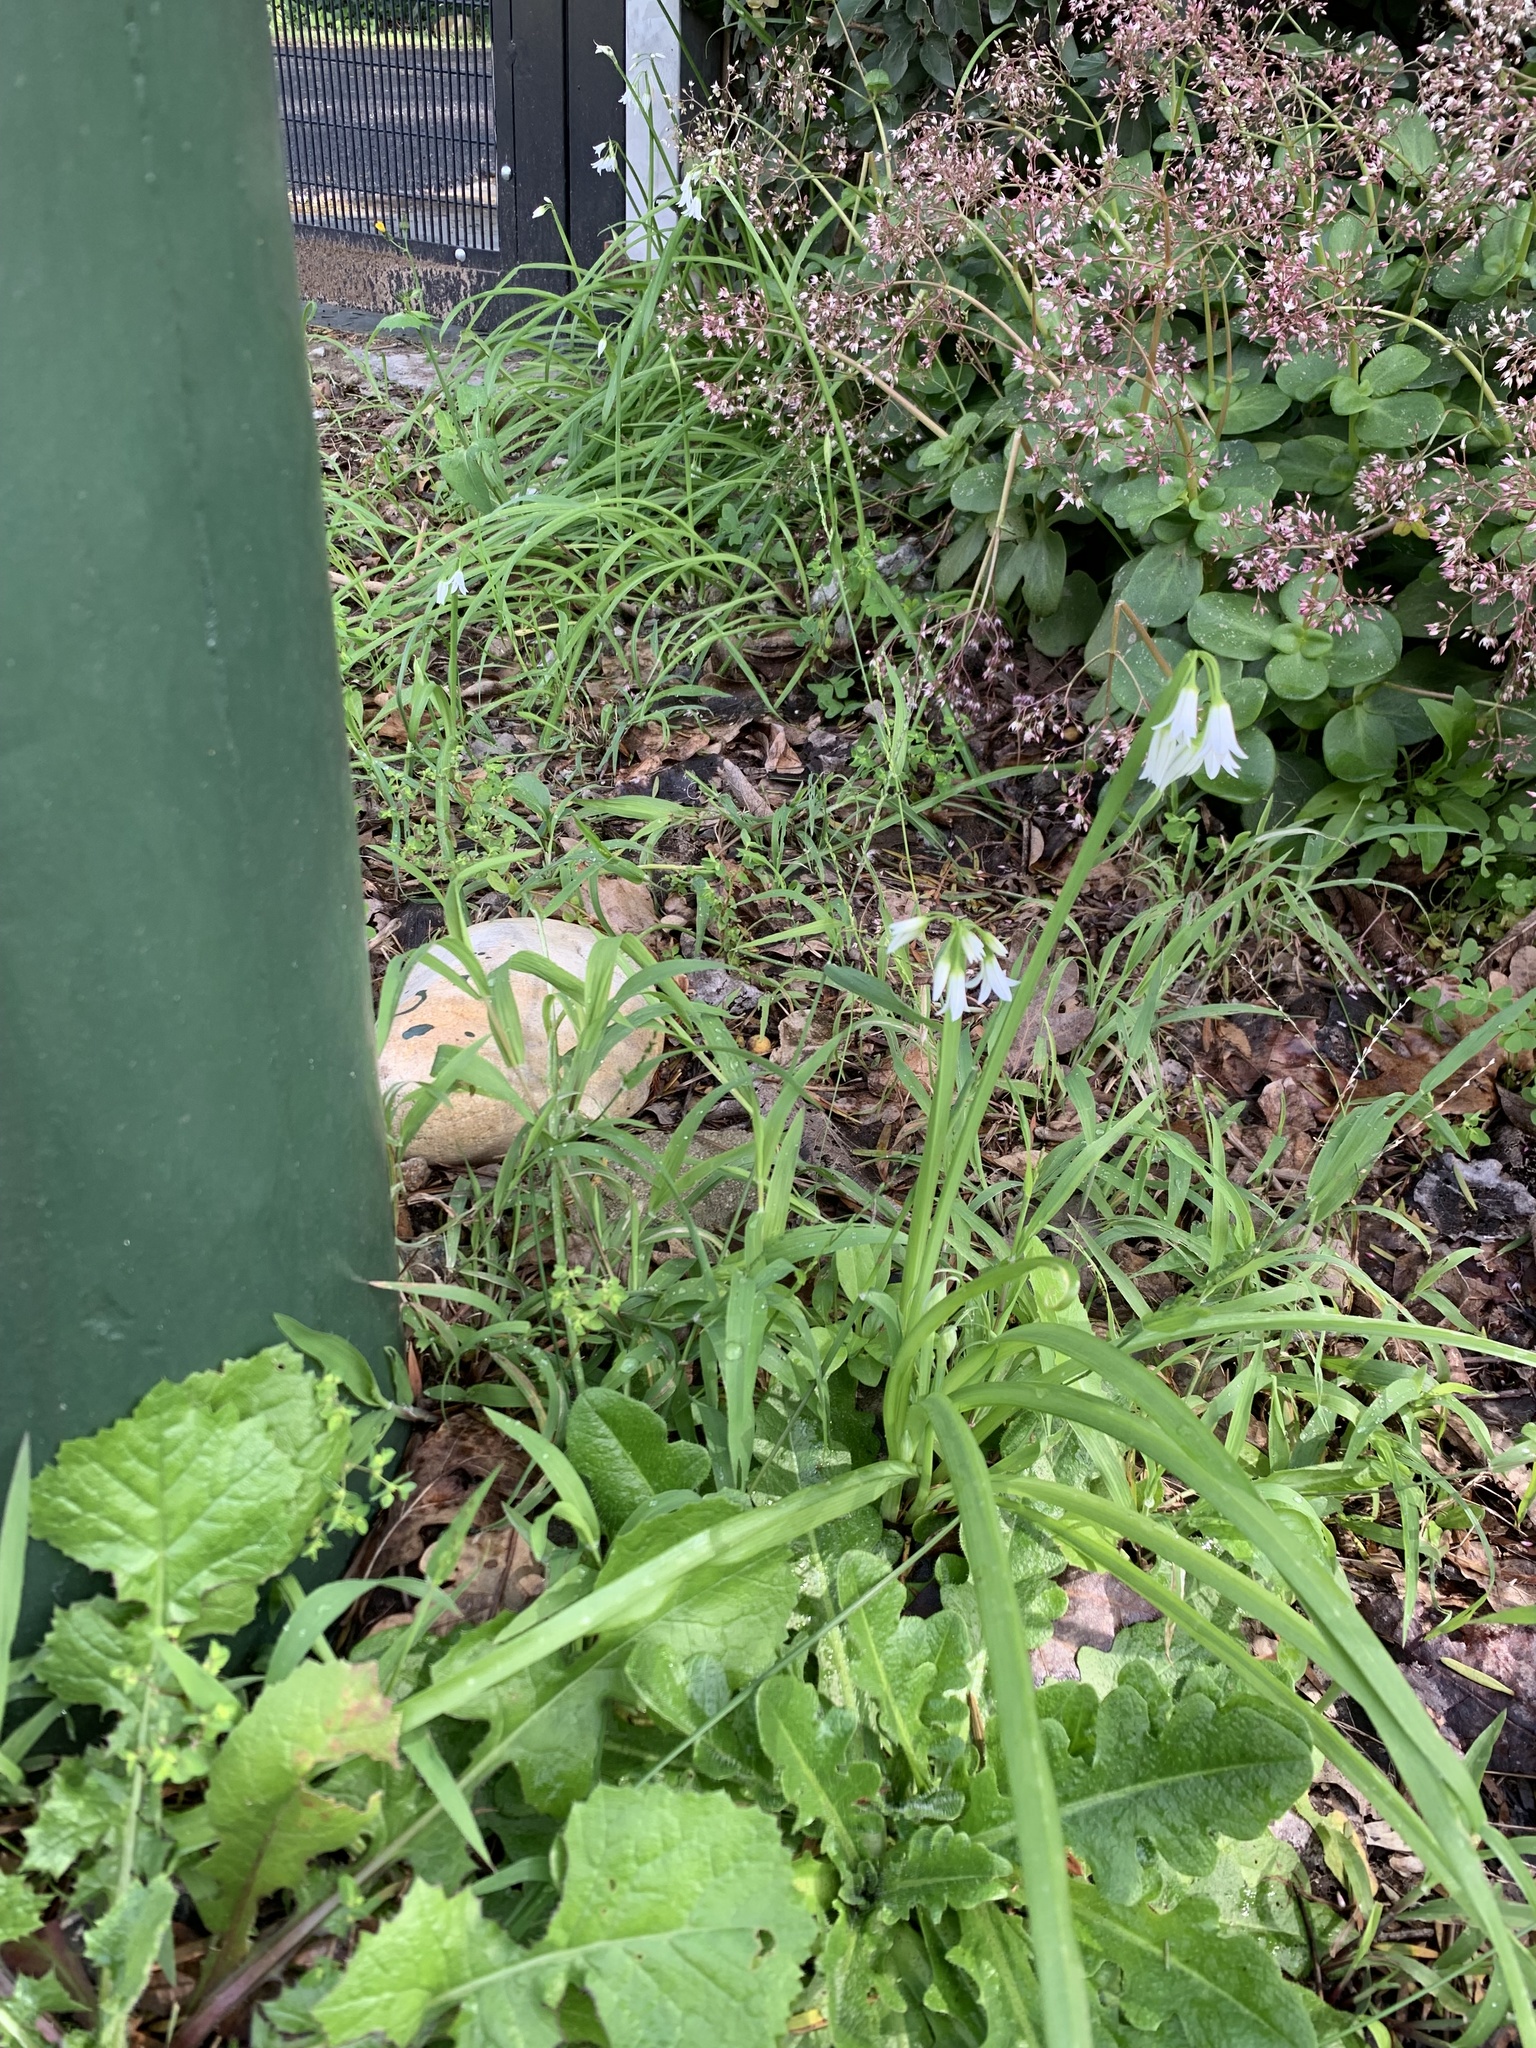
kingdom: Plantae
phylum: Tracheophyta
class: Liliopsida
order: Asparagales
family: Amaryllidaceae
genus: Allium
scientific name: Allium triquetrum
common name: Three-cornered garlic
